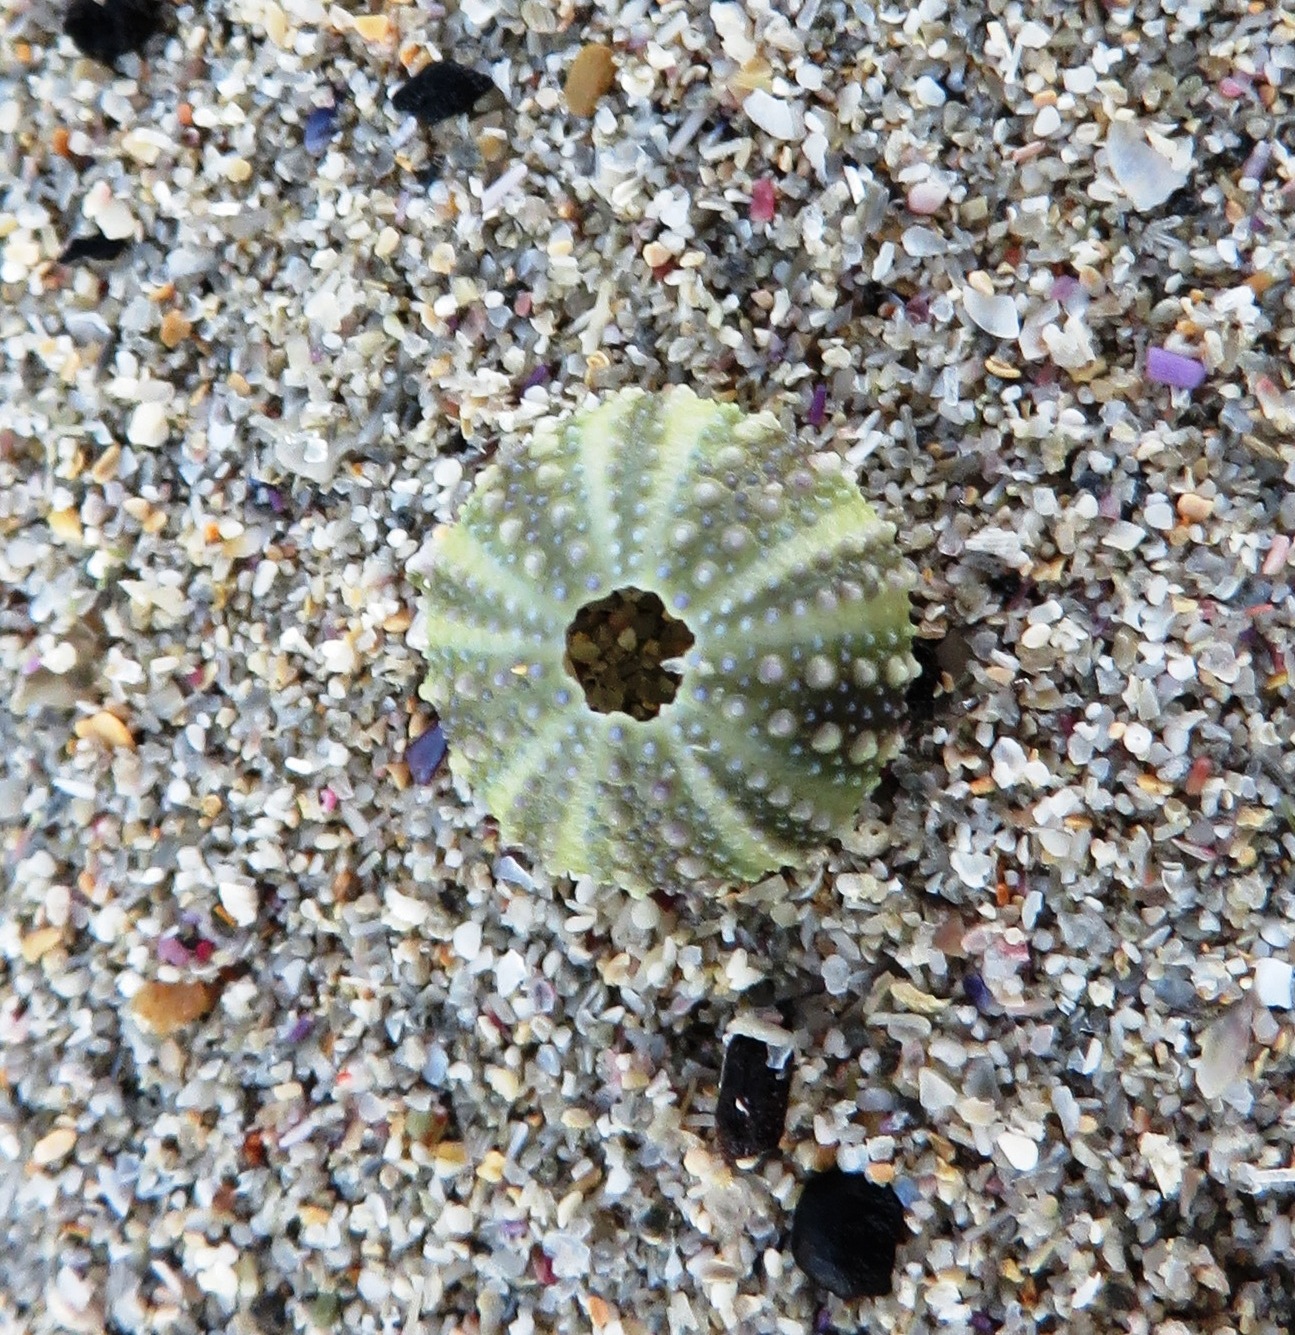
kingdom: Animalia
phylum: Echinodermata
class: Echinoidea
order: Camarodonta
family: Parechinidae
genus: Parechinus
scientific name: Parechinus angulosus
